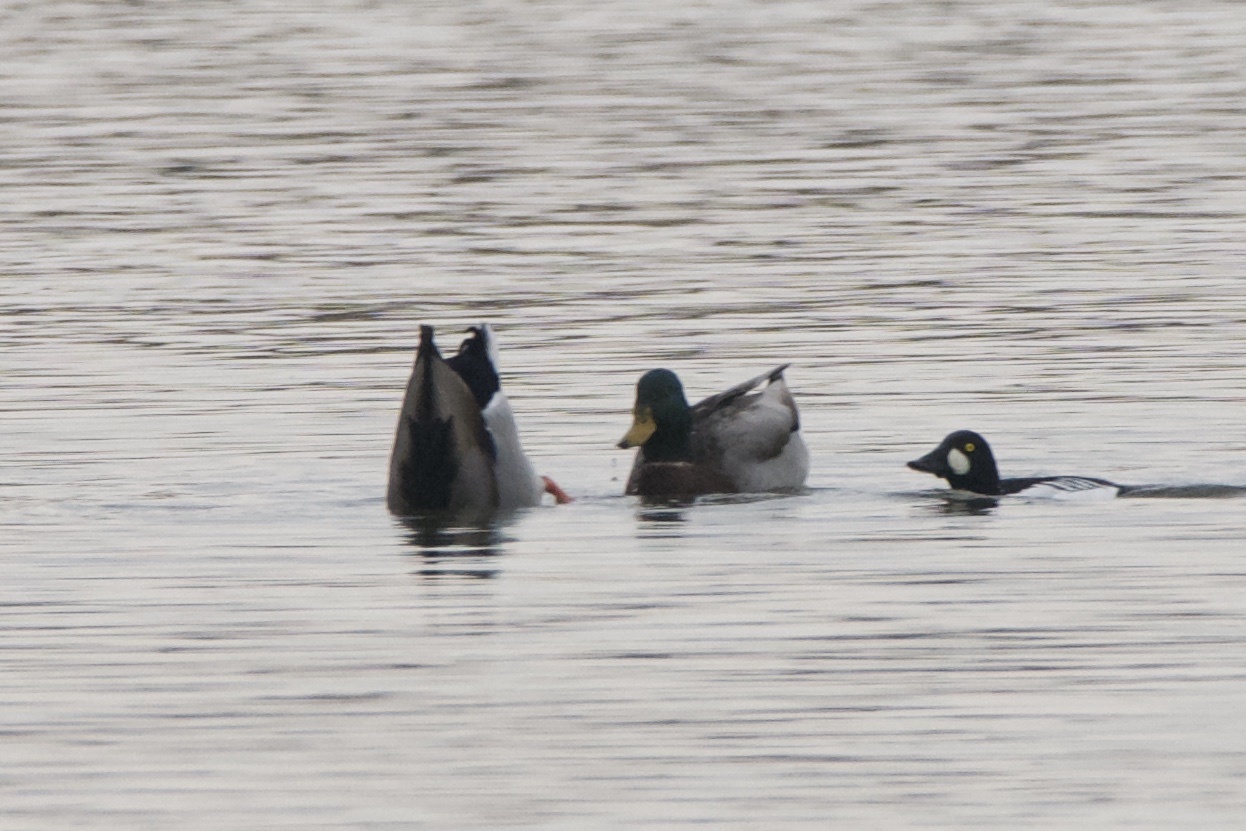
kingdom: Animalia
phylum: Chordata
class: Aves
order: Anseriformes
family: Anatidae
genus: Anas
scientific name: Anas platyrhynchos
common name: Mallard
